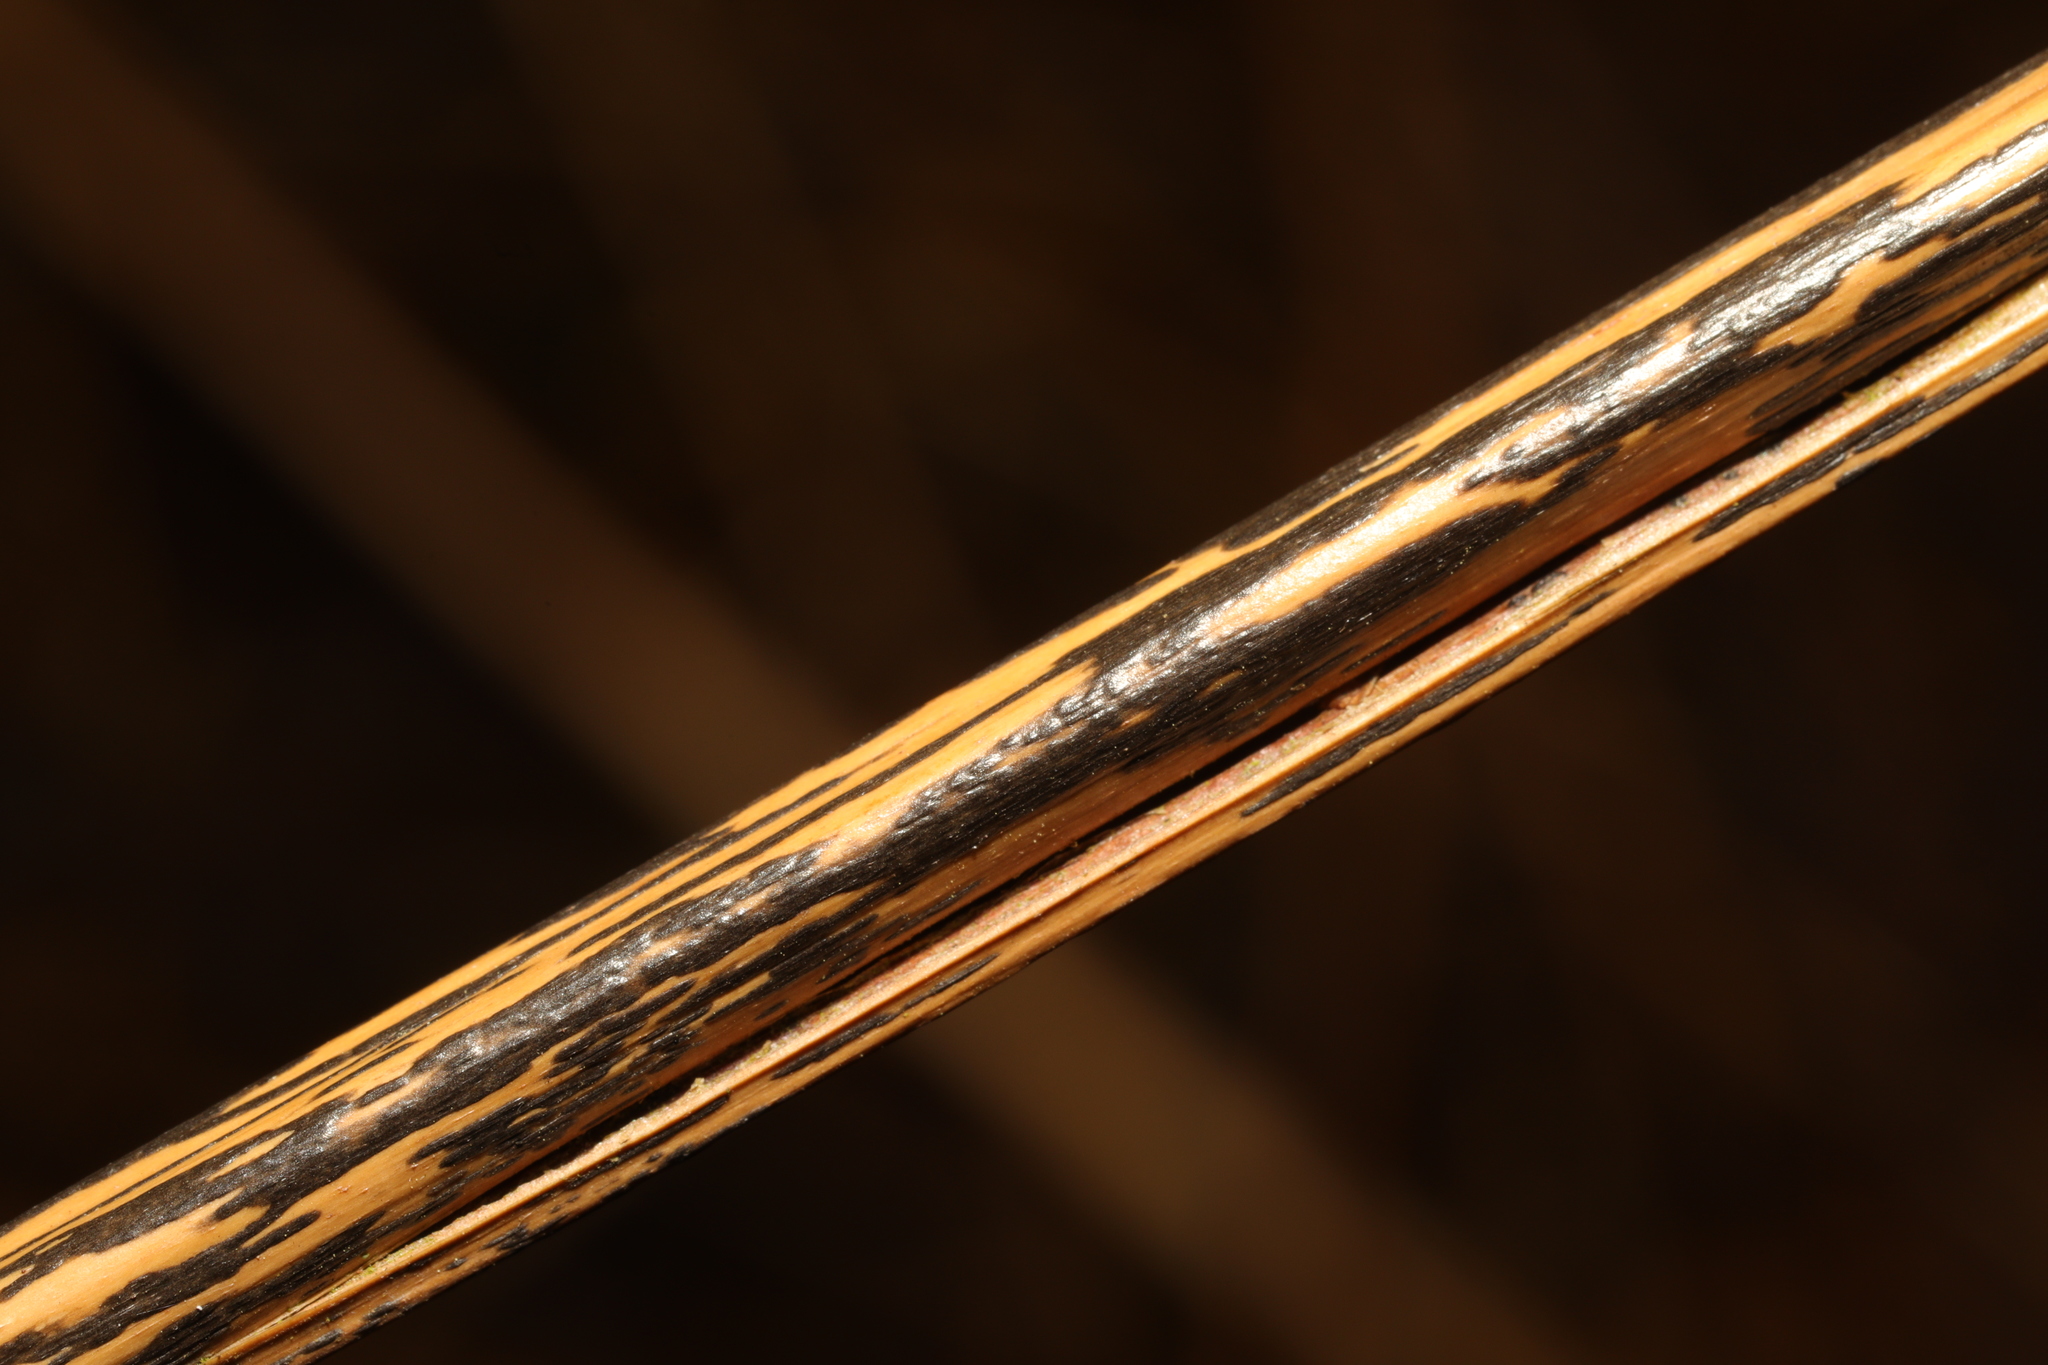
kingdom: Fungi
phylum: Ascomycota
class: Dothideomycetes
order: Pleosporales
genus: Rhopographus
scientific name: Rhopographus filicinus
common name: Bracken map
